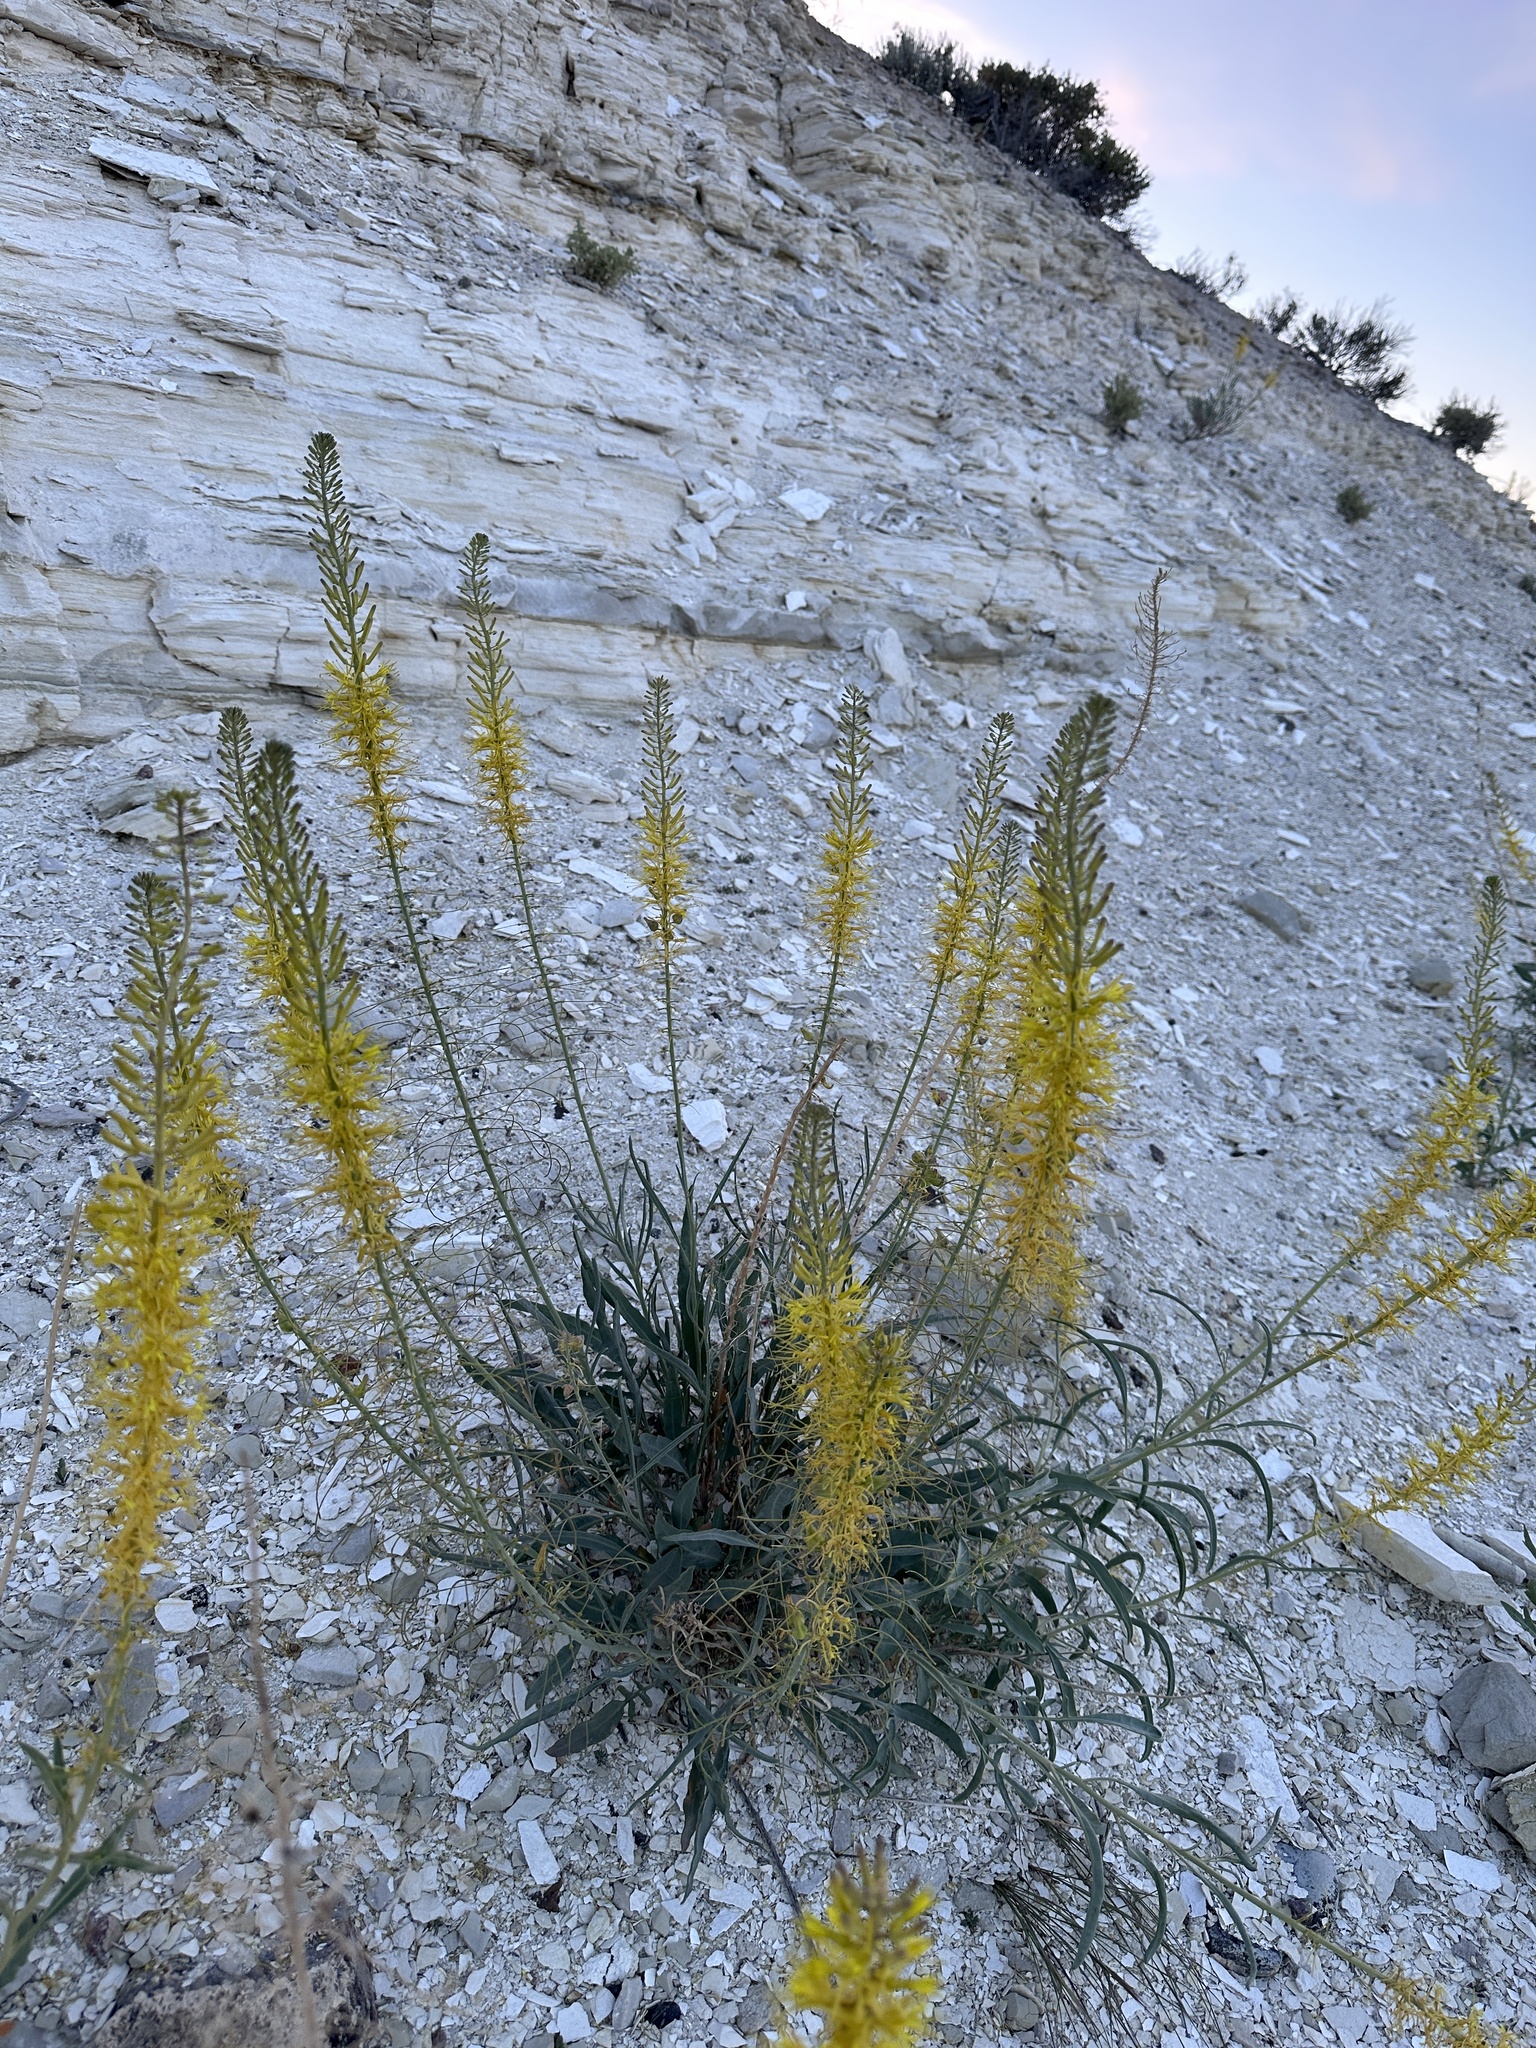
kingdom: Plantae
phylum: Tracheophyta
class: Magnoliopsida
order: Brassicales
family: Brassicaceae
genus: Stanleya
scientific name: Stanleya pinnata
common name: Prince's-plume
